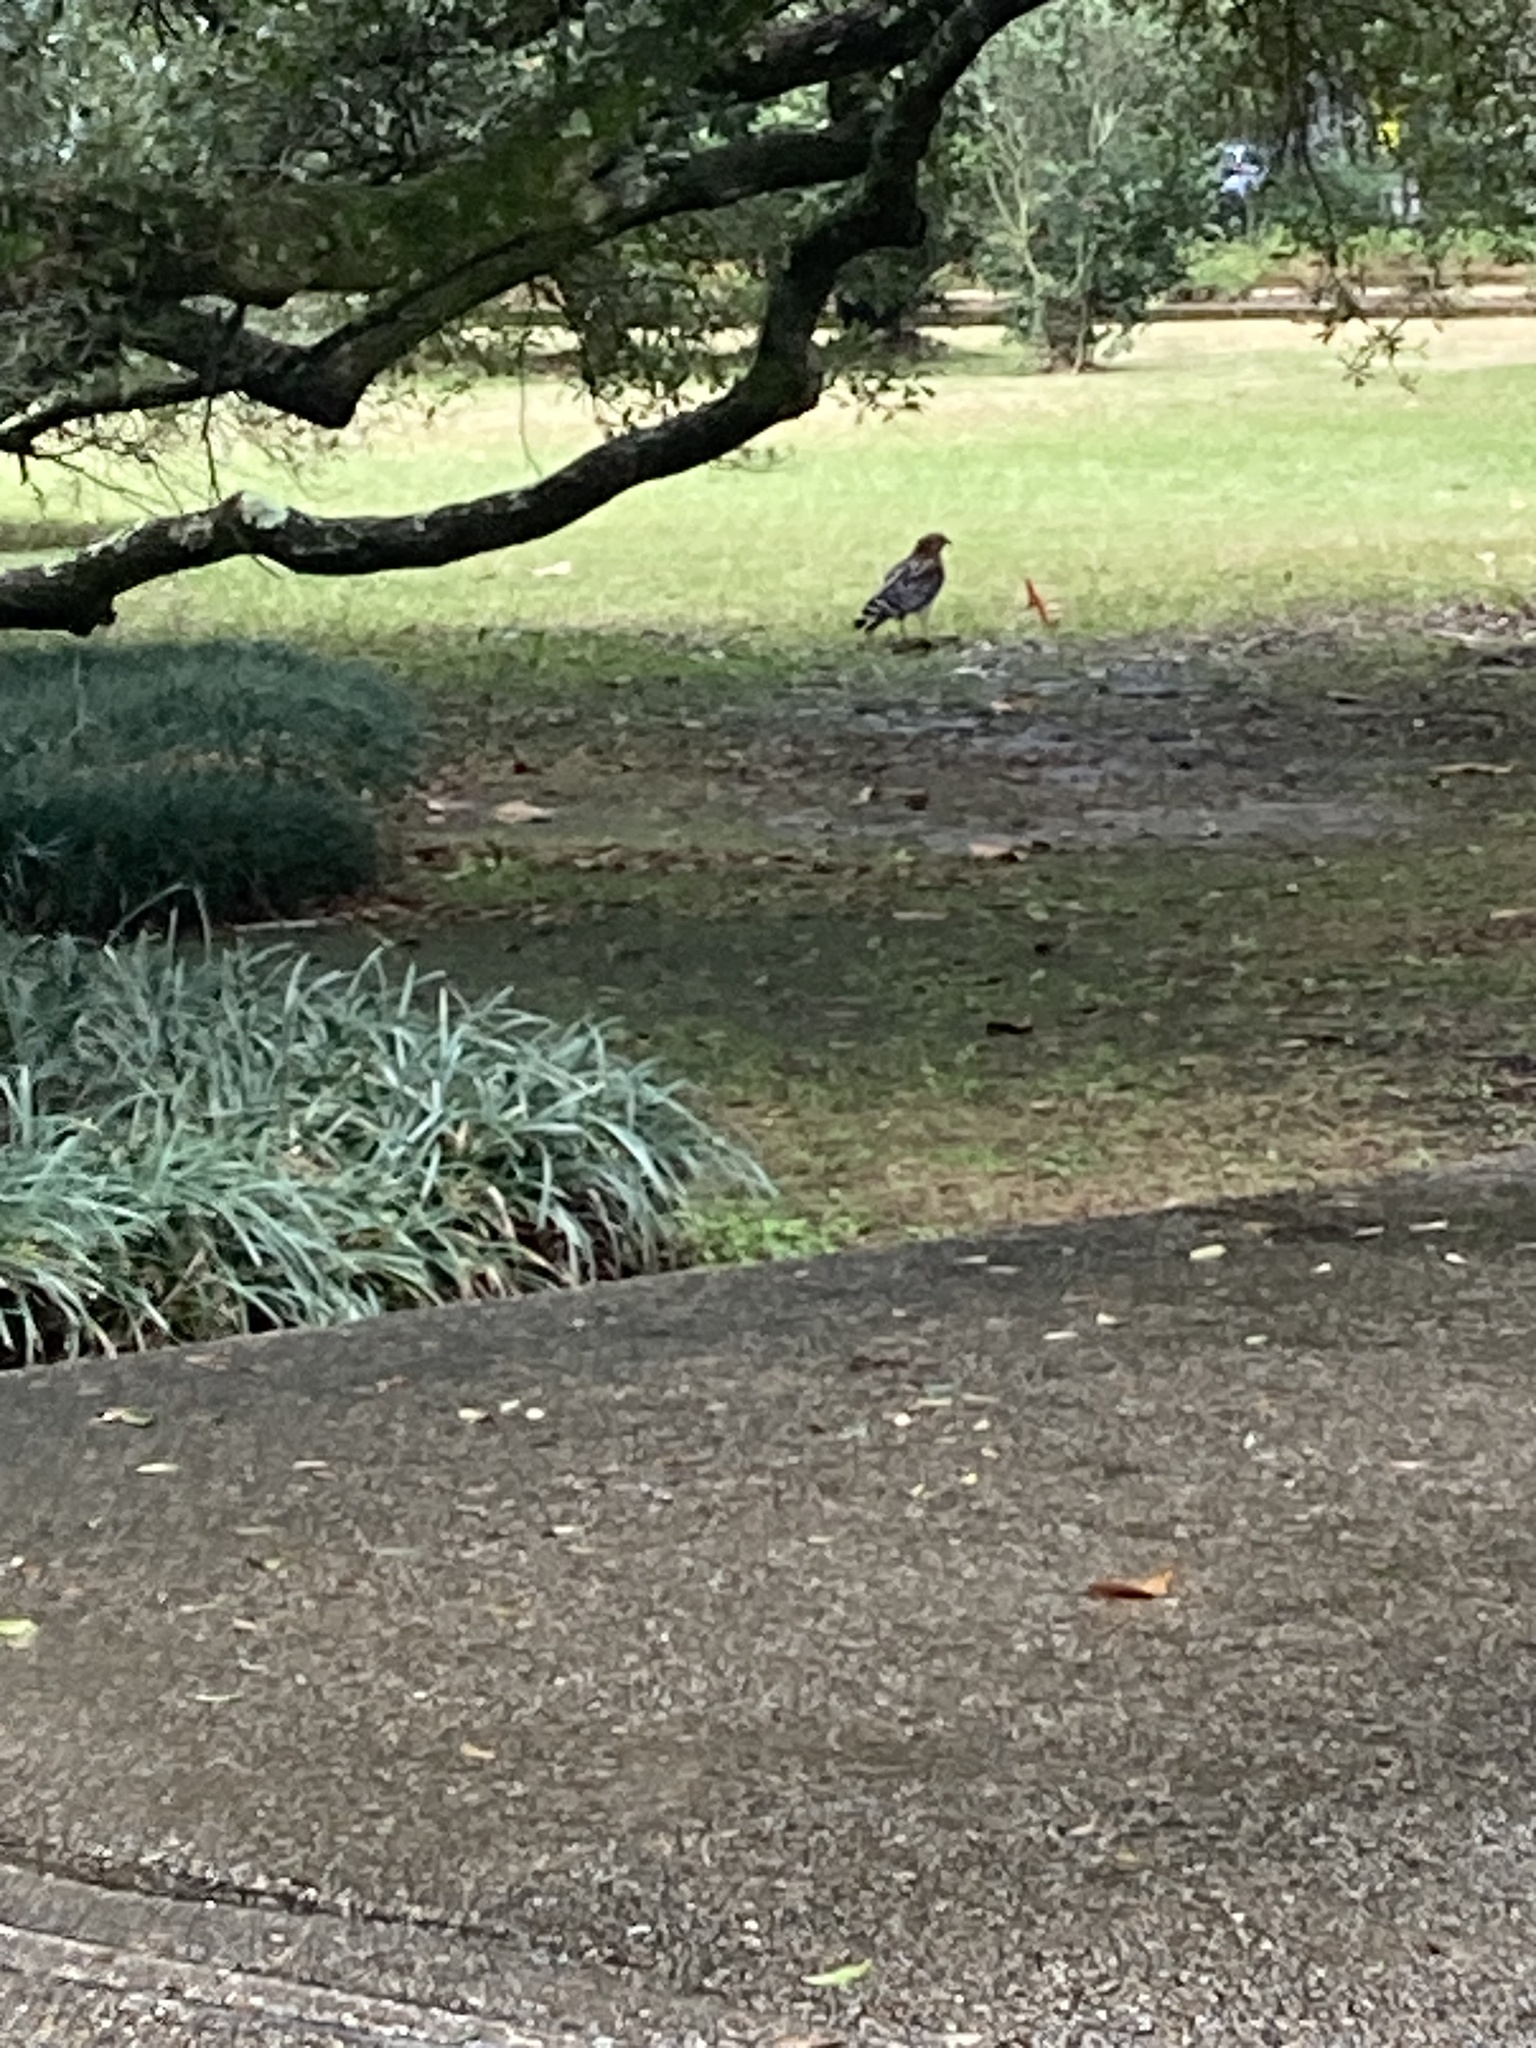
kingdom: Animalia
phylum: Chordata
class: Aves
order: Accipitriformes
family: Accipitridae
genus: Buteo
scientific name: Buteo lineatus
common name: Red-shouldered hawk
